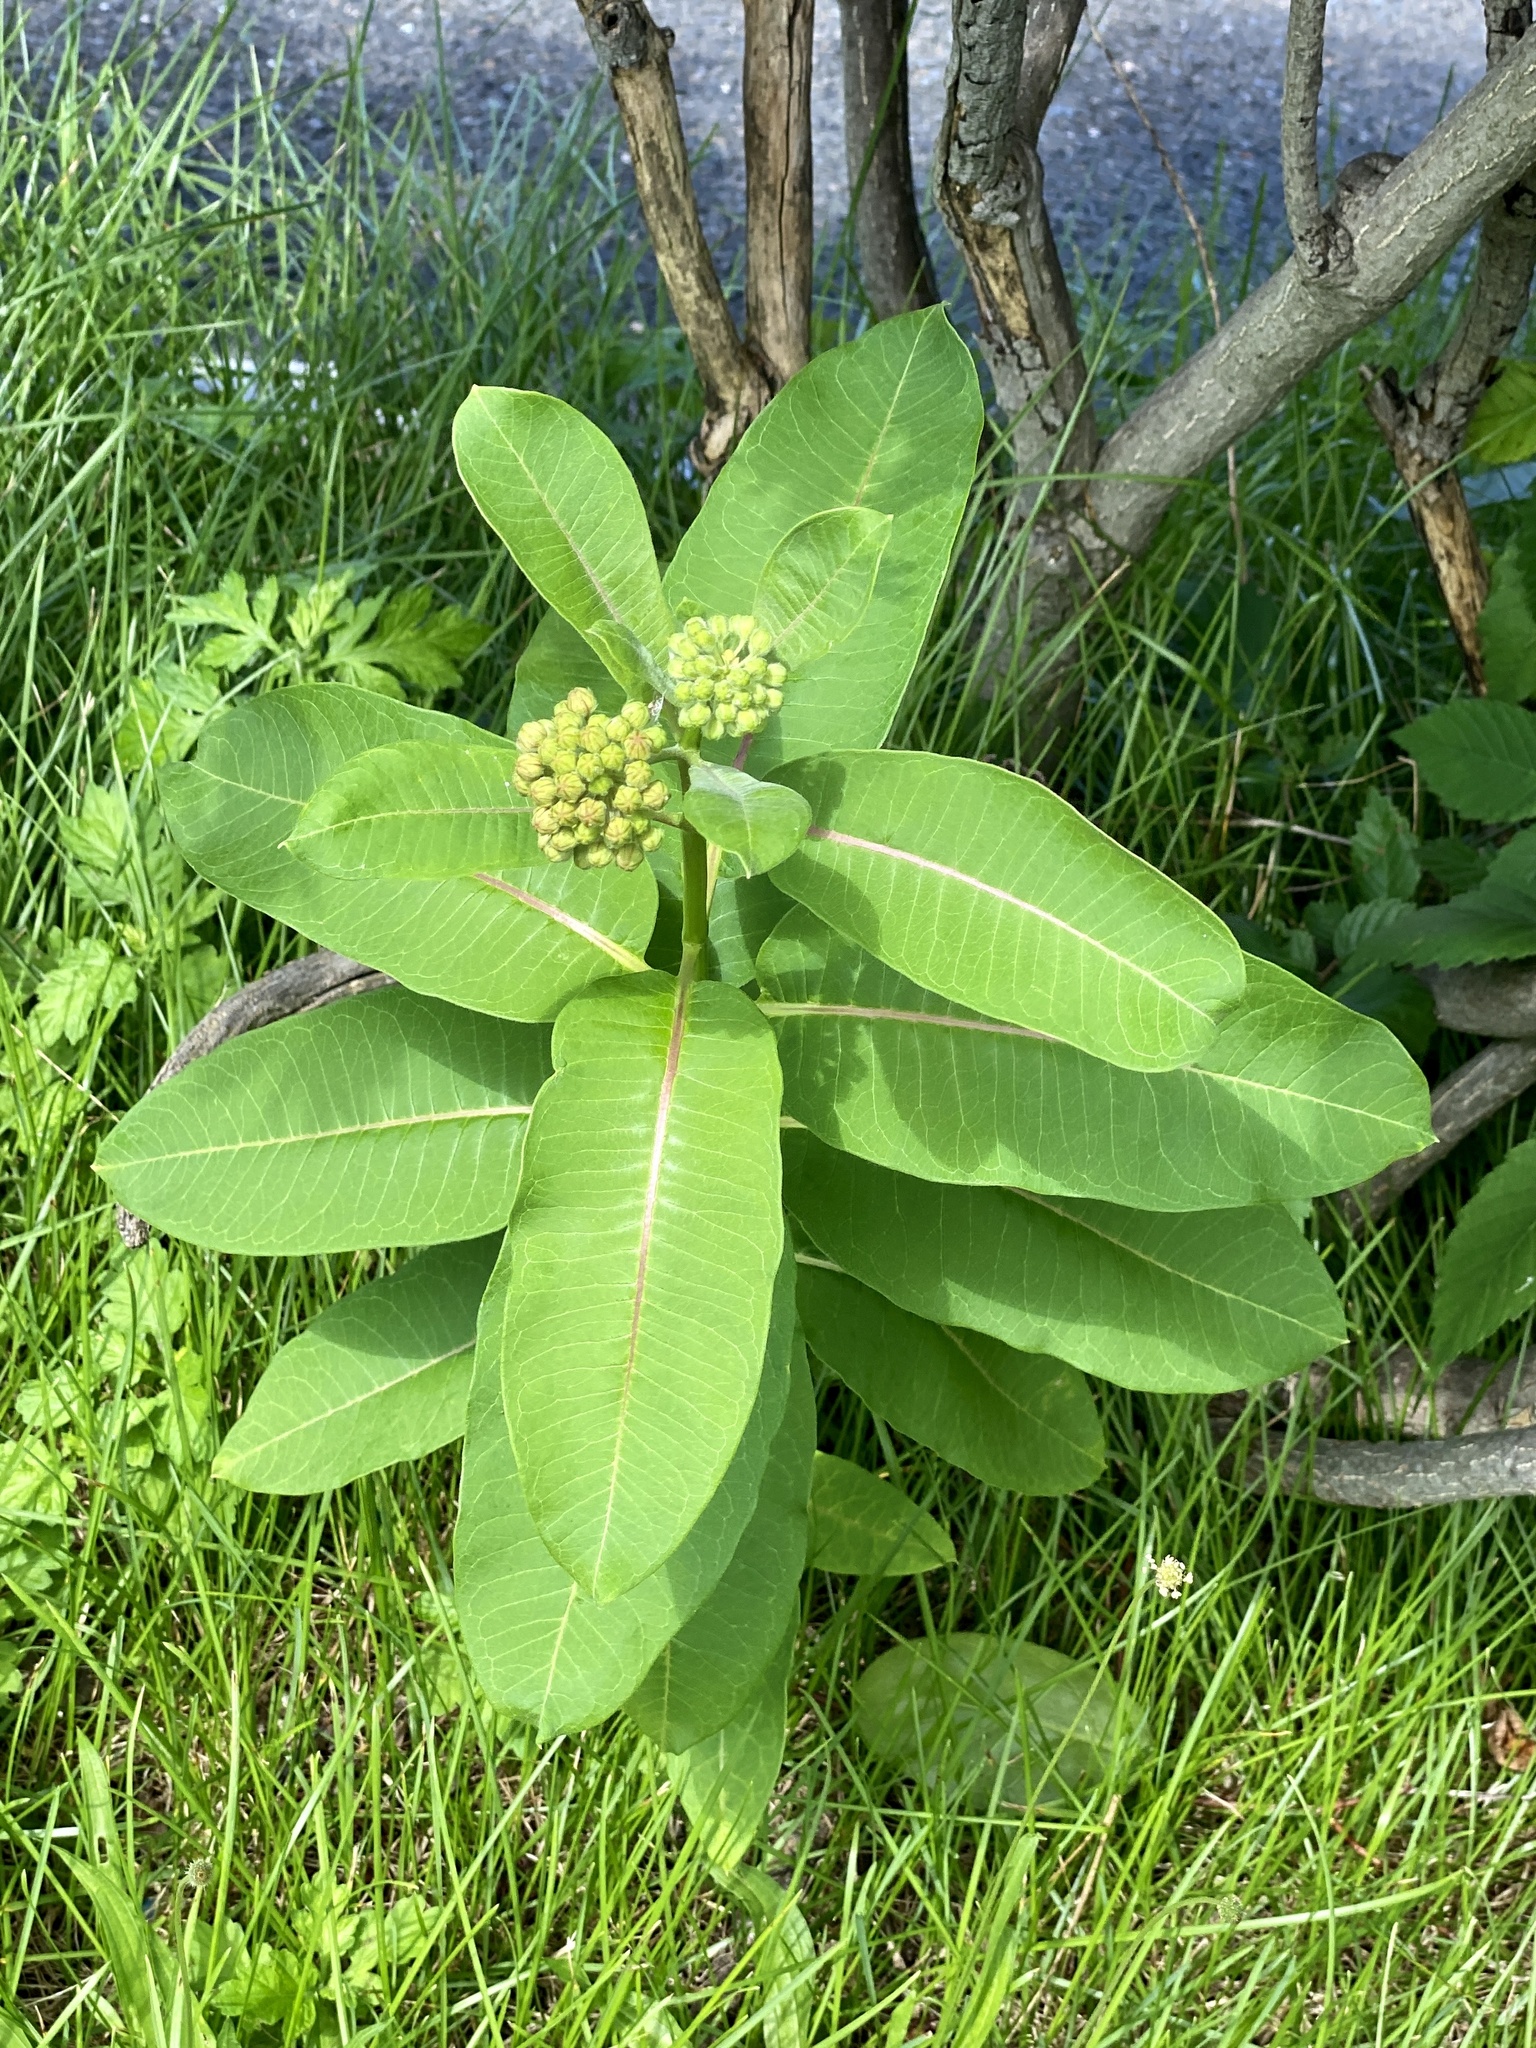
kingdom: Plantae
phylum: Tracheophyta
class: Magnoliopsida
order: Gentianales
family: Apocynaceae
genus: Asclepias
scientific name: Asclepias syriaca
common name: Common milkweed
